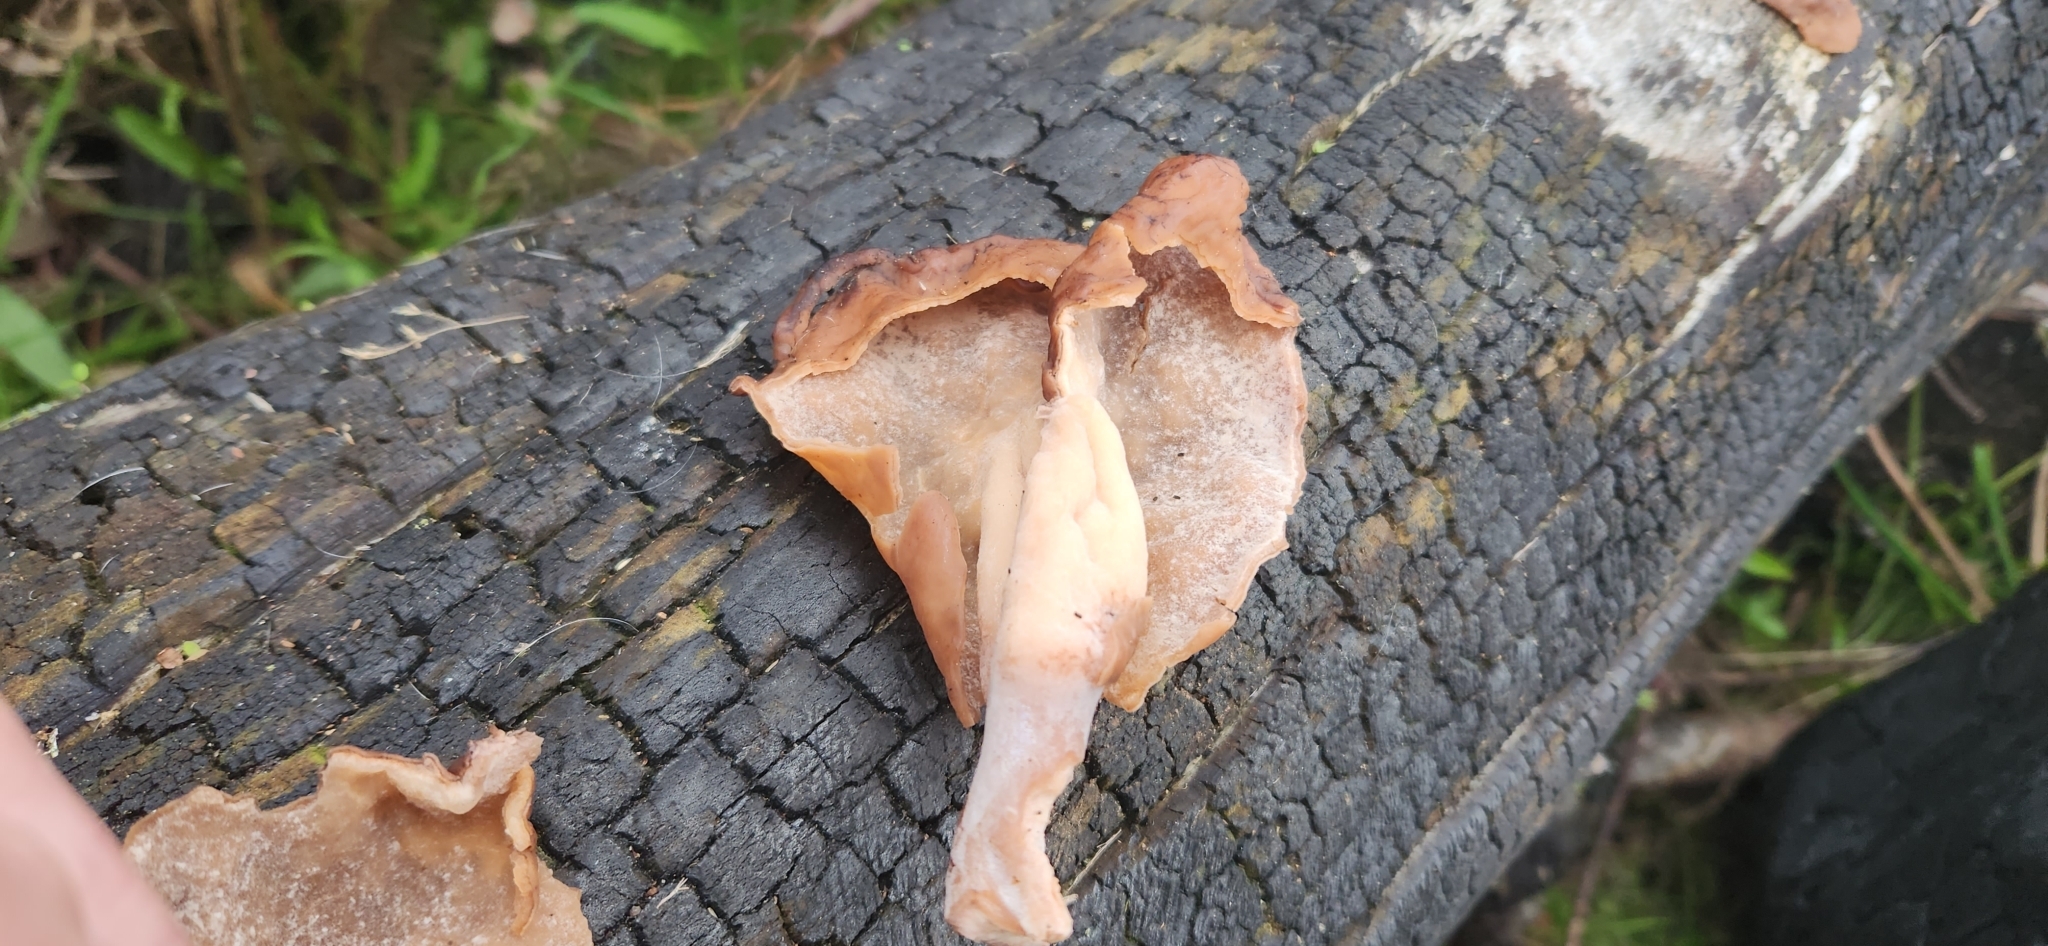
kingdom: Fungi
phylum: Ascomycota
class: Pezizomycetes
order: Pezizales
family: Discinaceae
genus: Gyromitra
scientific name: Gyromitra infula
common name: Pouched false morel
